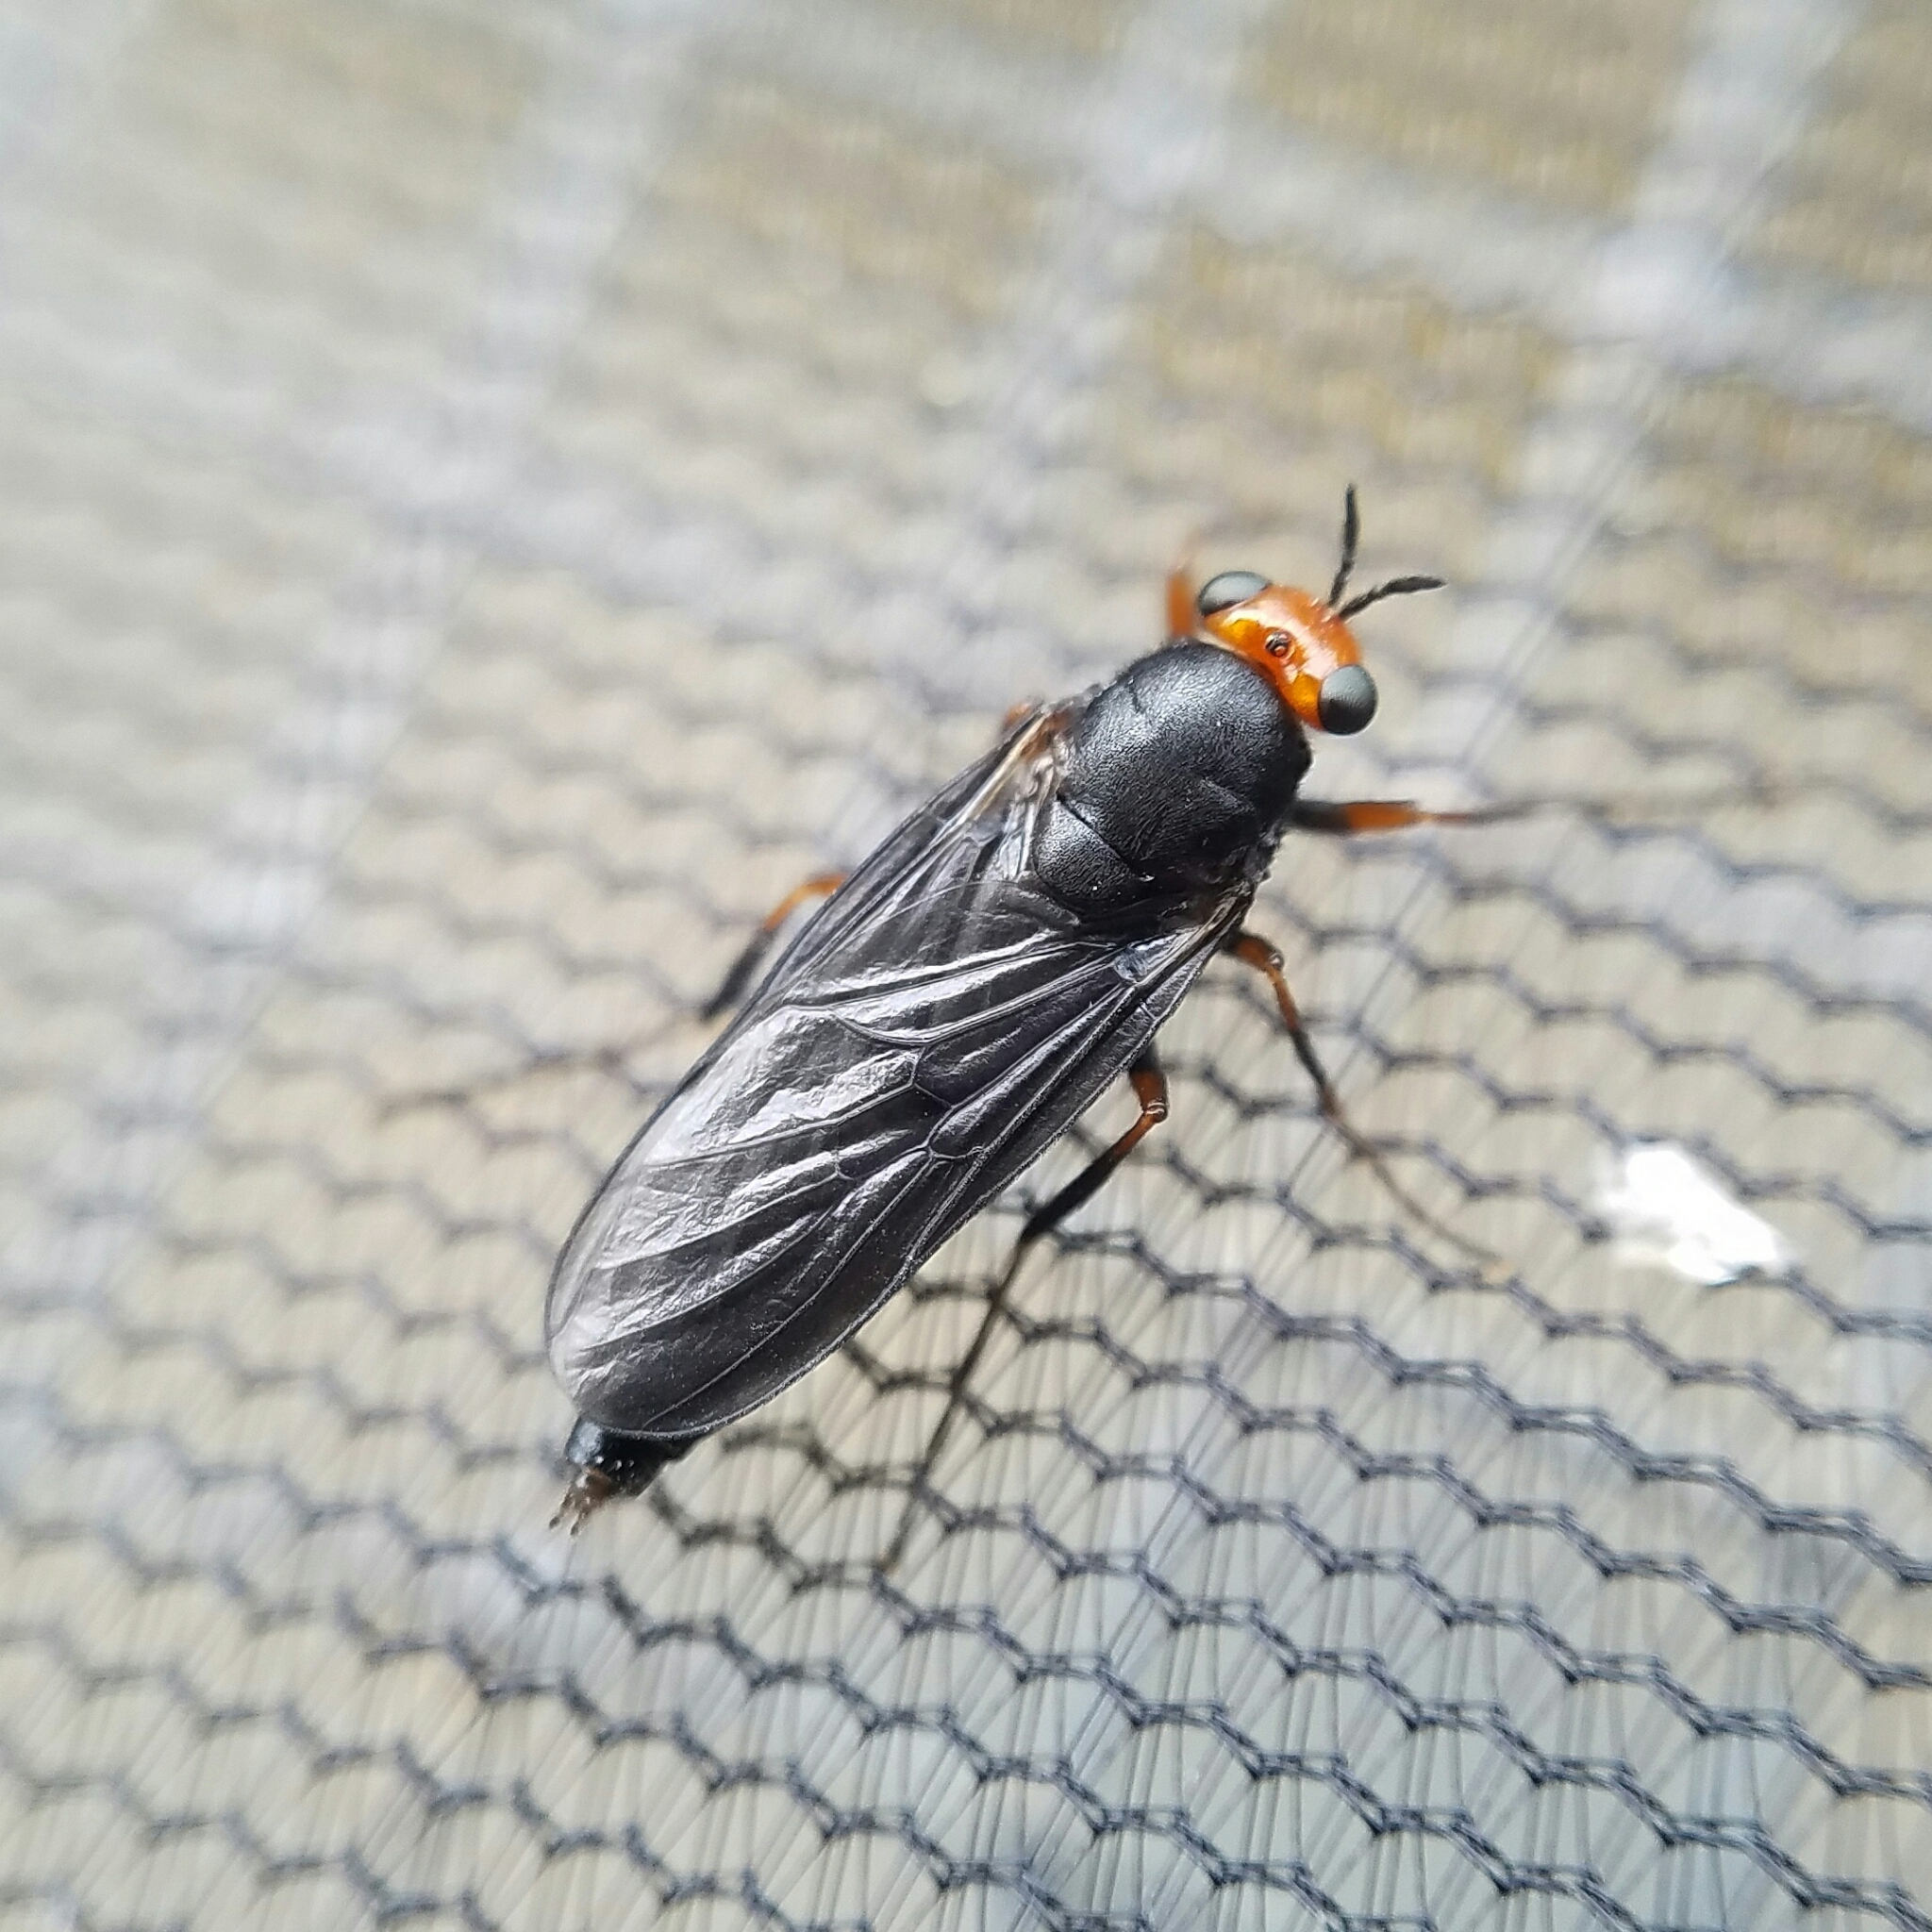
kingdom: Animalia
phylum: Arthropoda
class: Insecta
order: Diptera
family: Stratiomyidae
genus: Inopus
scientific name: Inopus rubriceps
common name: Soldier fly
